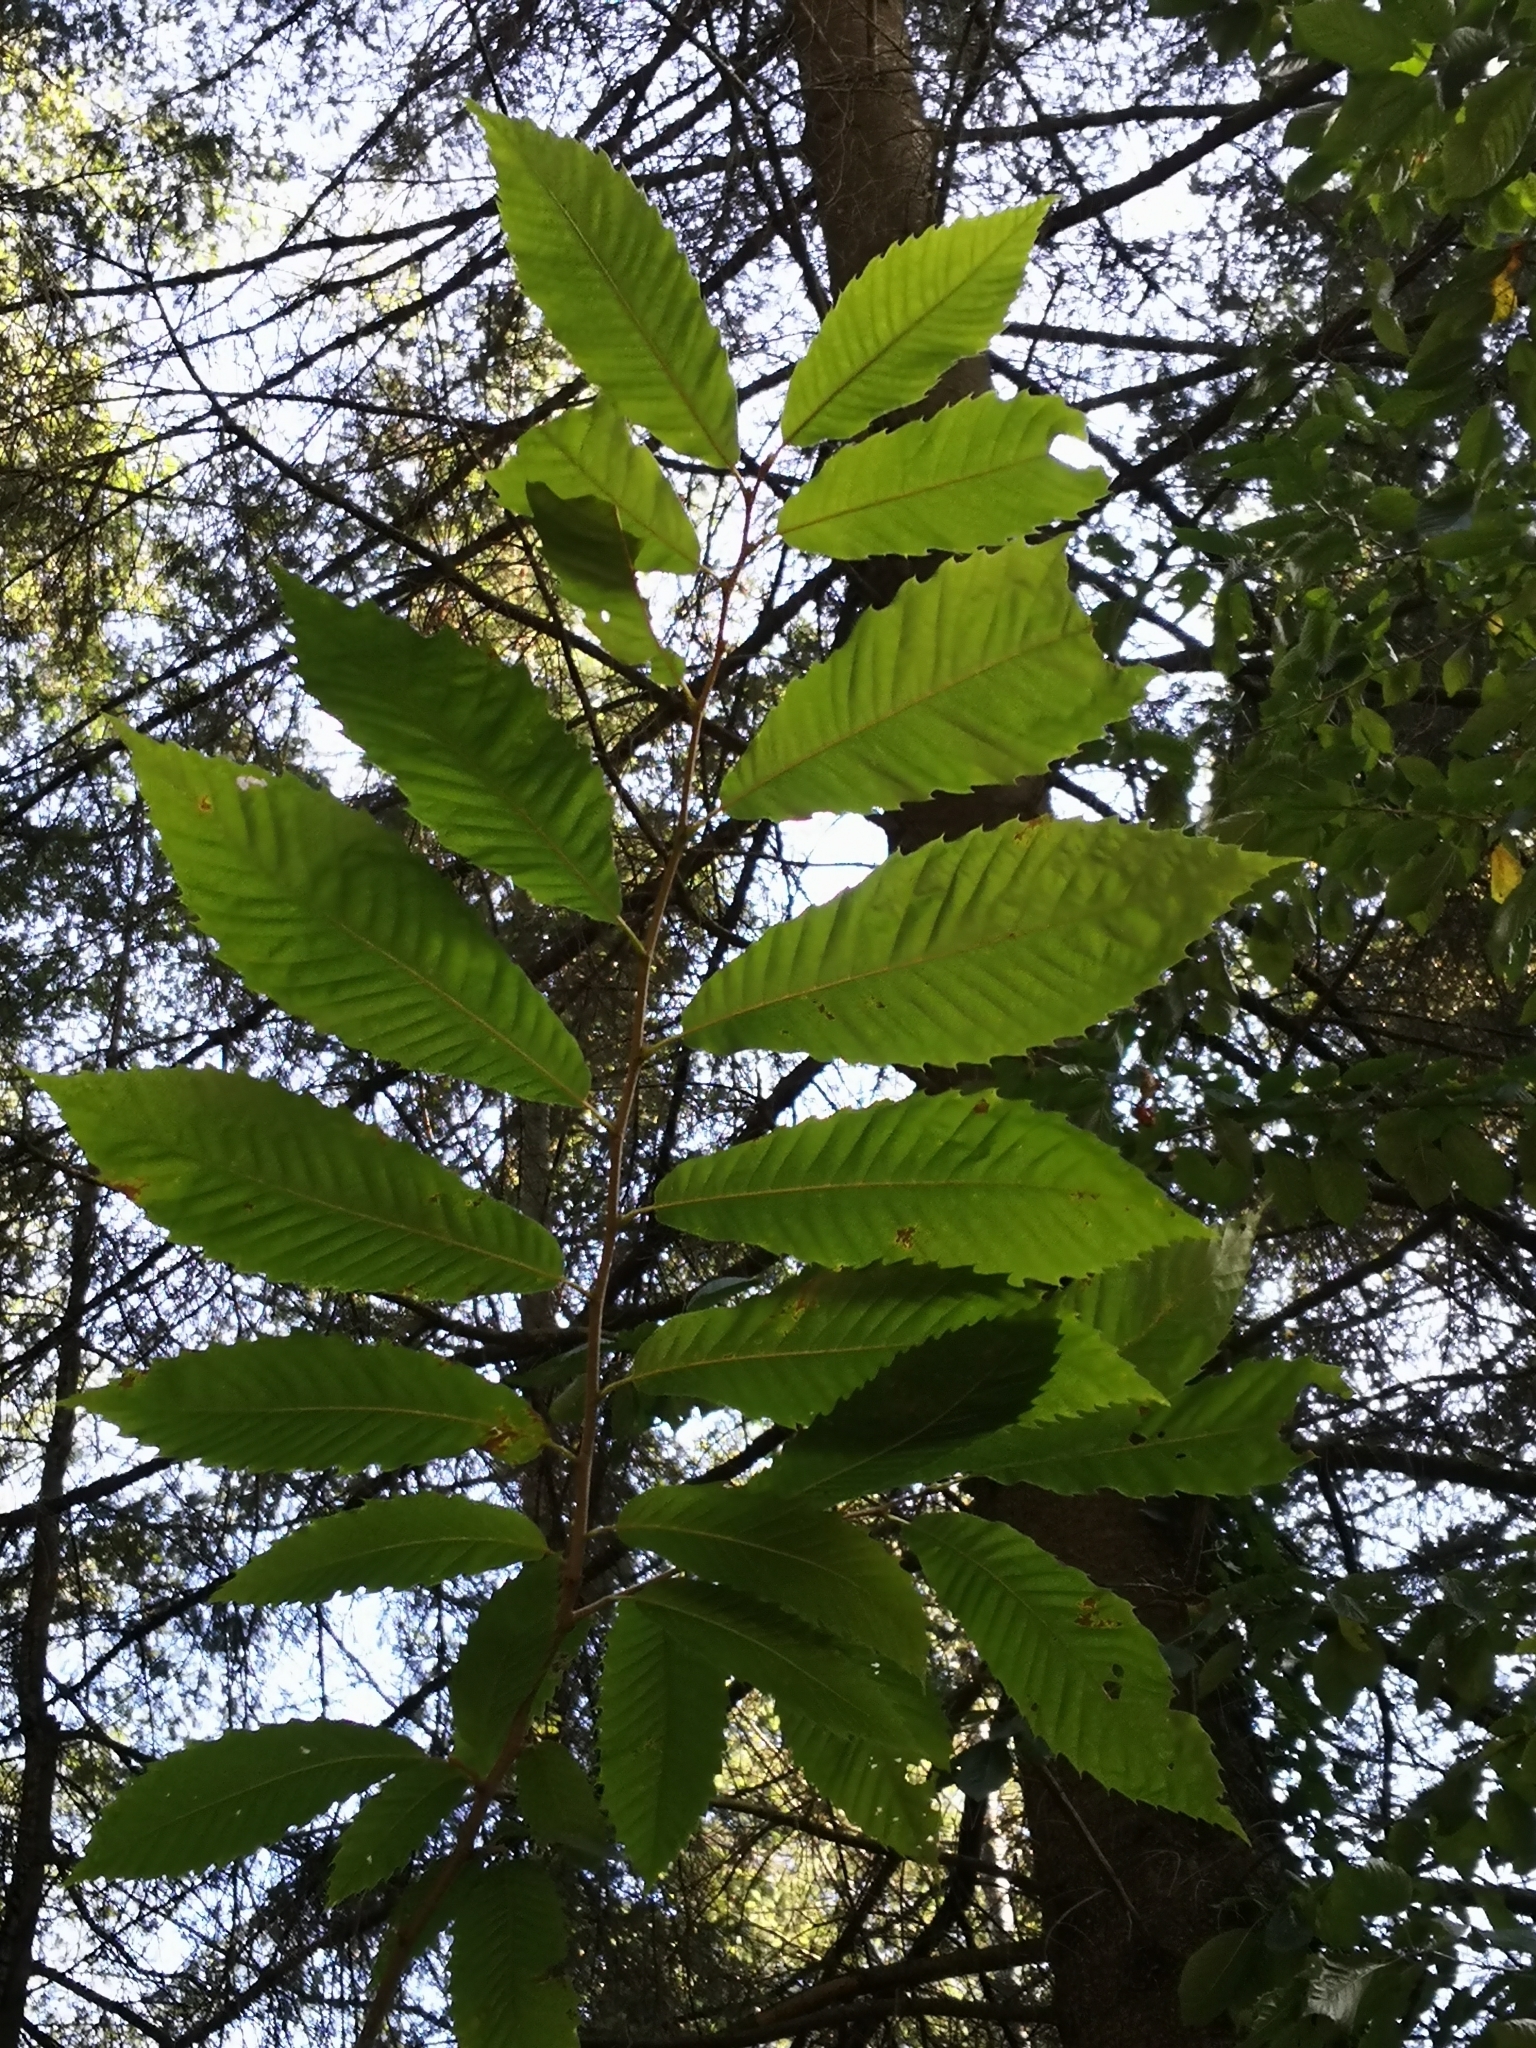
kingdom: Plantae
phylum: Tracheophyta
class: Magnoliopsida
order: Fagales
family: Fagaceae
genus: Castanea
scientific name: Castanea sativa
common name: Sweet chestnut
